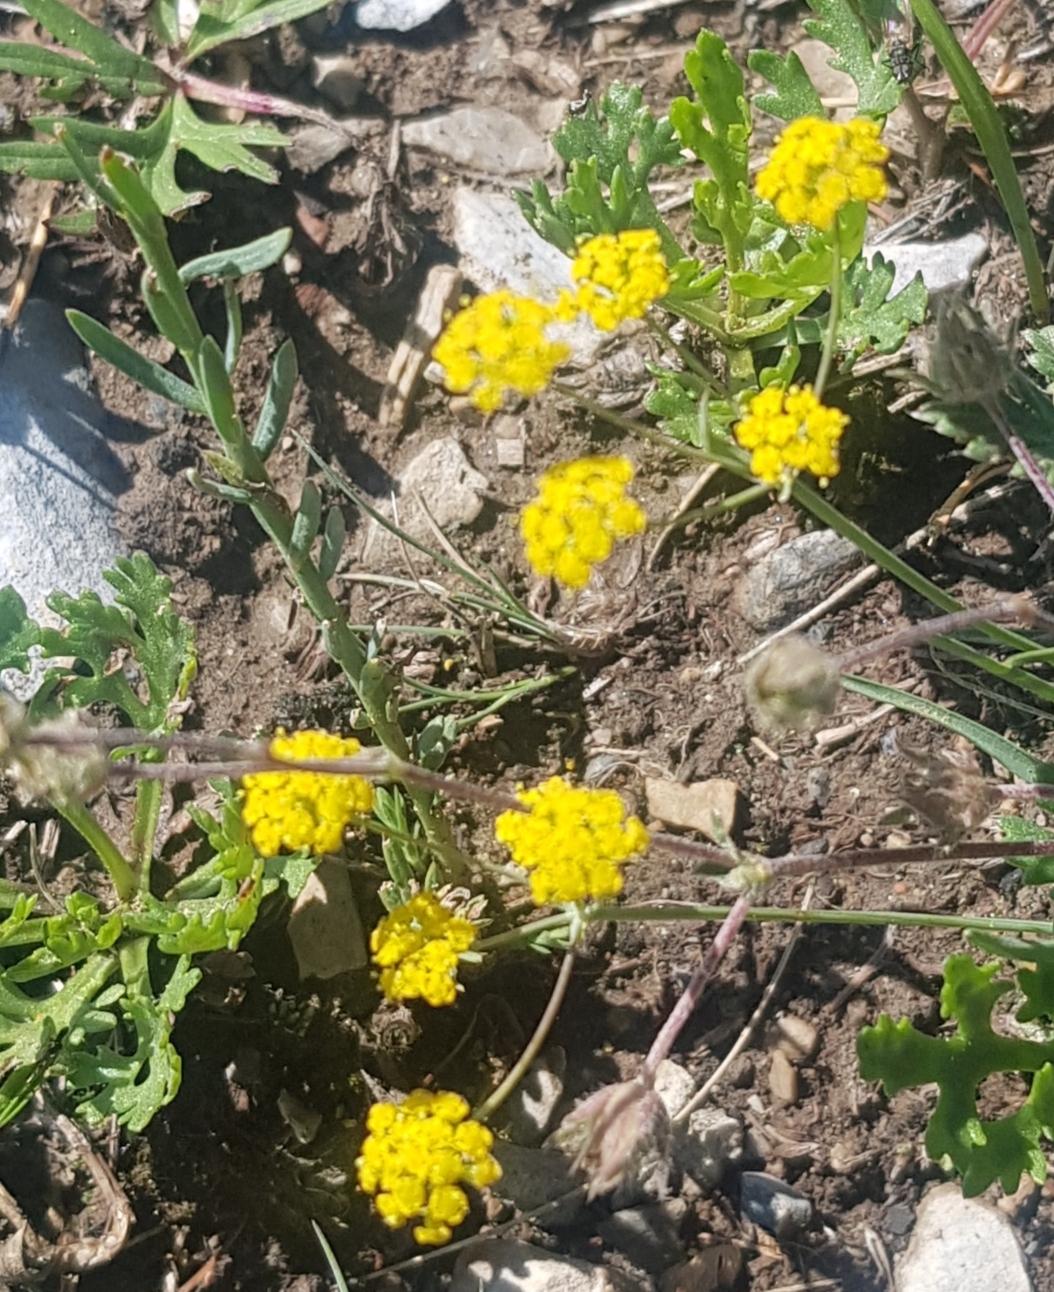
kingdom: Plantae
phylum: Tracheophyta
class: Magnoliopsida
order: Dipsacales
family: Caprifoliaceae
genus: Patrinia
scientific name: Patrinia rupestris
